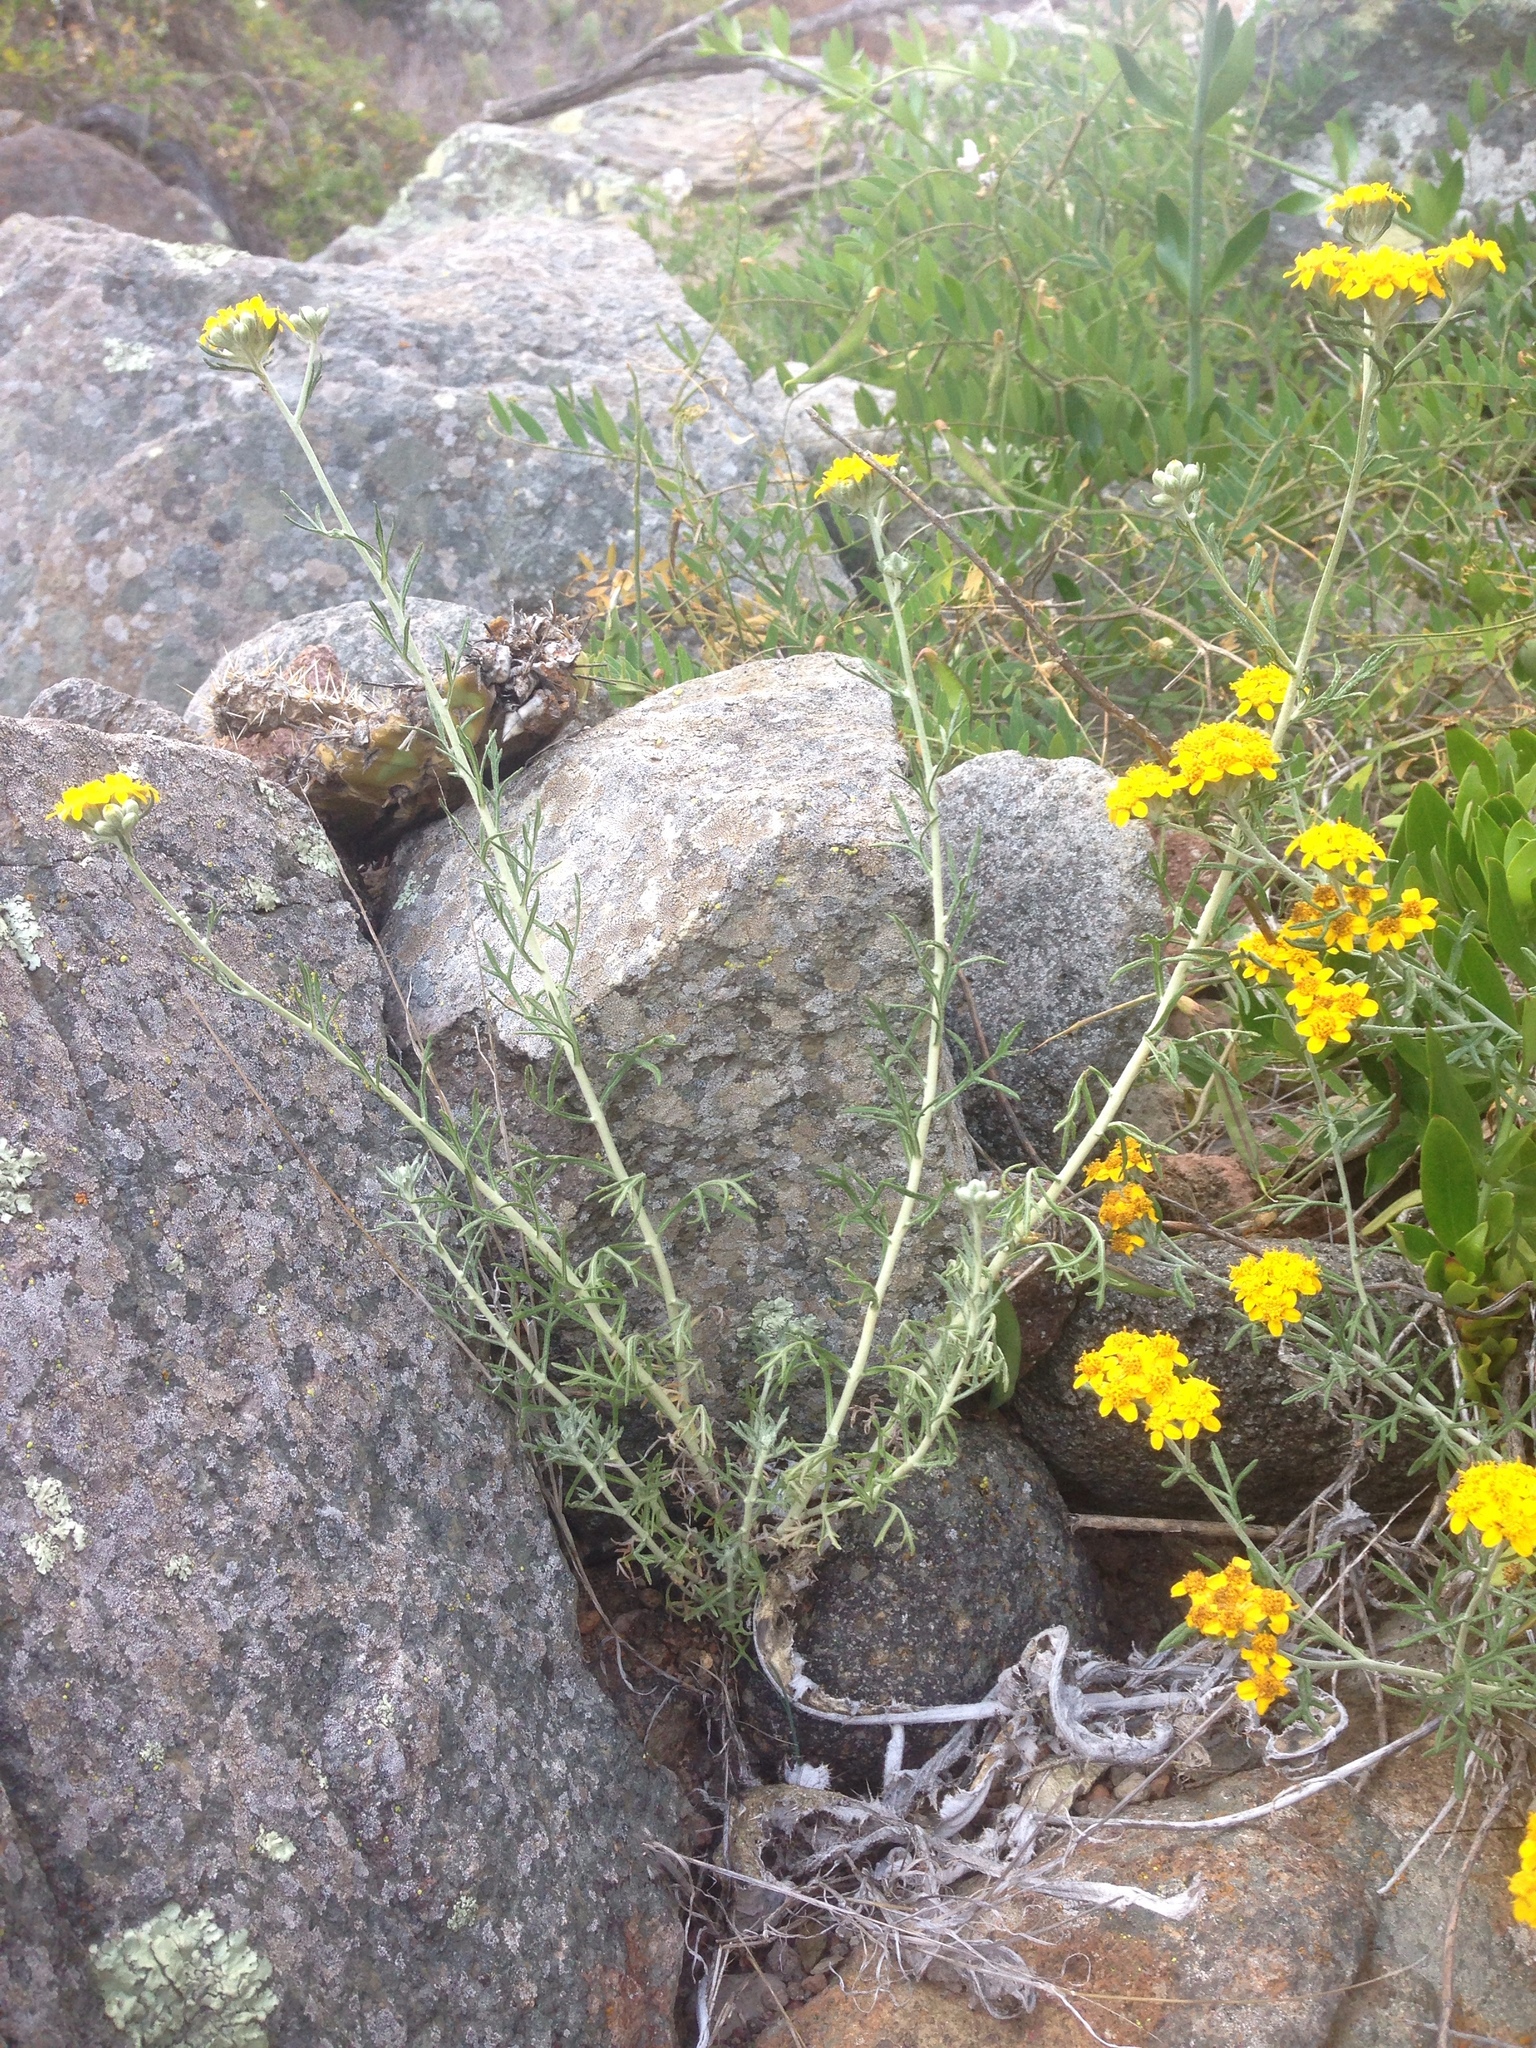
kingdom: Plantae
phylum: Tracheophyta
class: Magnoliopsida
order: Asterales
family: Asteraceae
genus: Eriophyllum
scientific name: Eriophyllum confertiflorum
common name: Golden-yarrow
